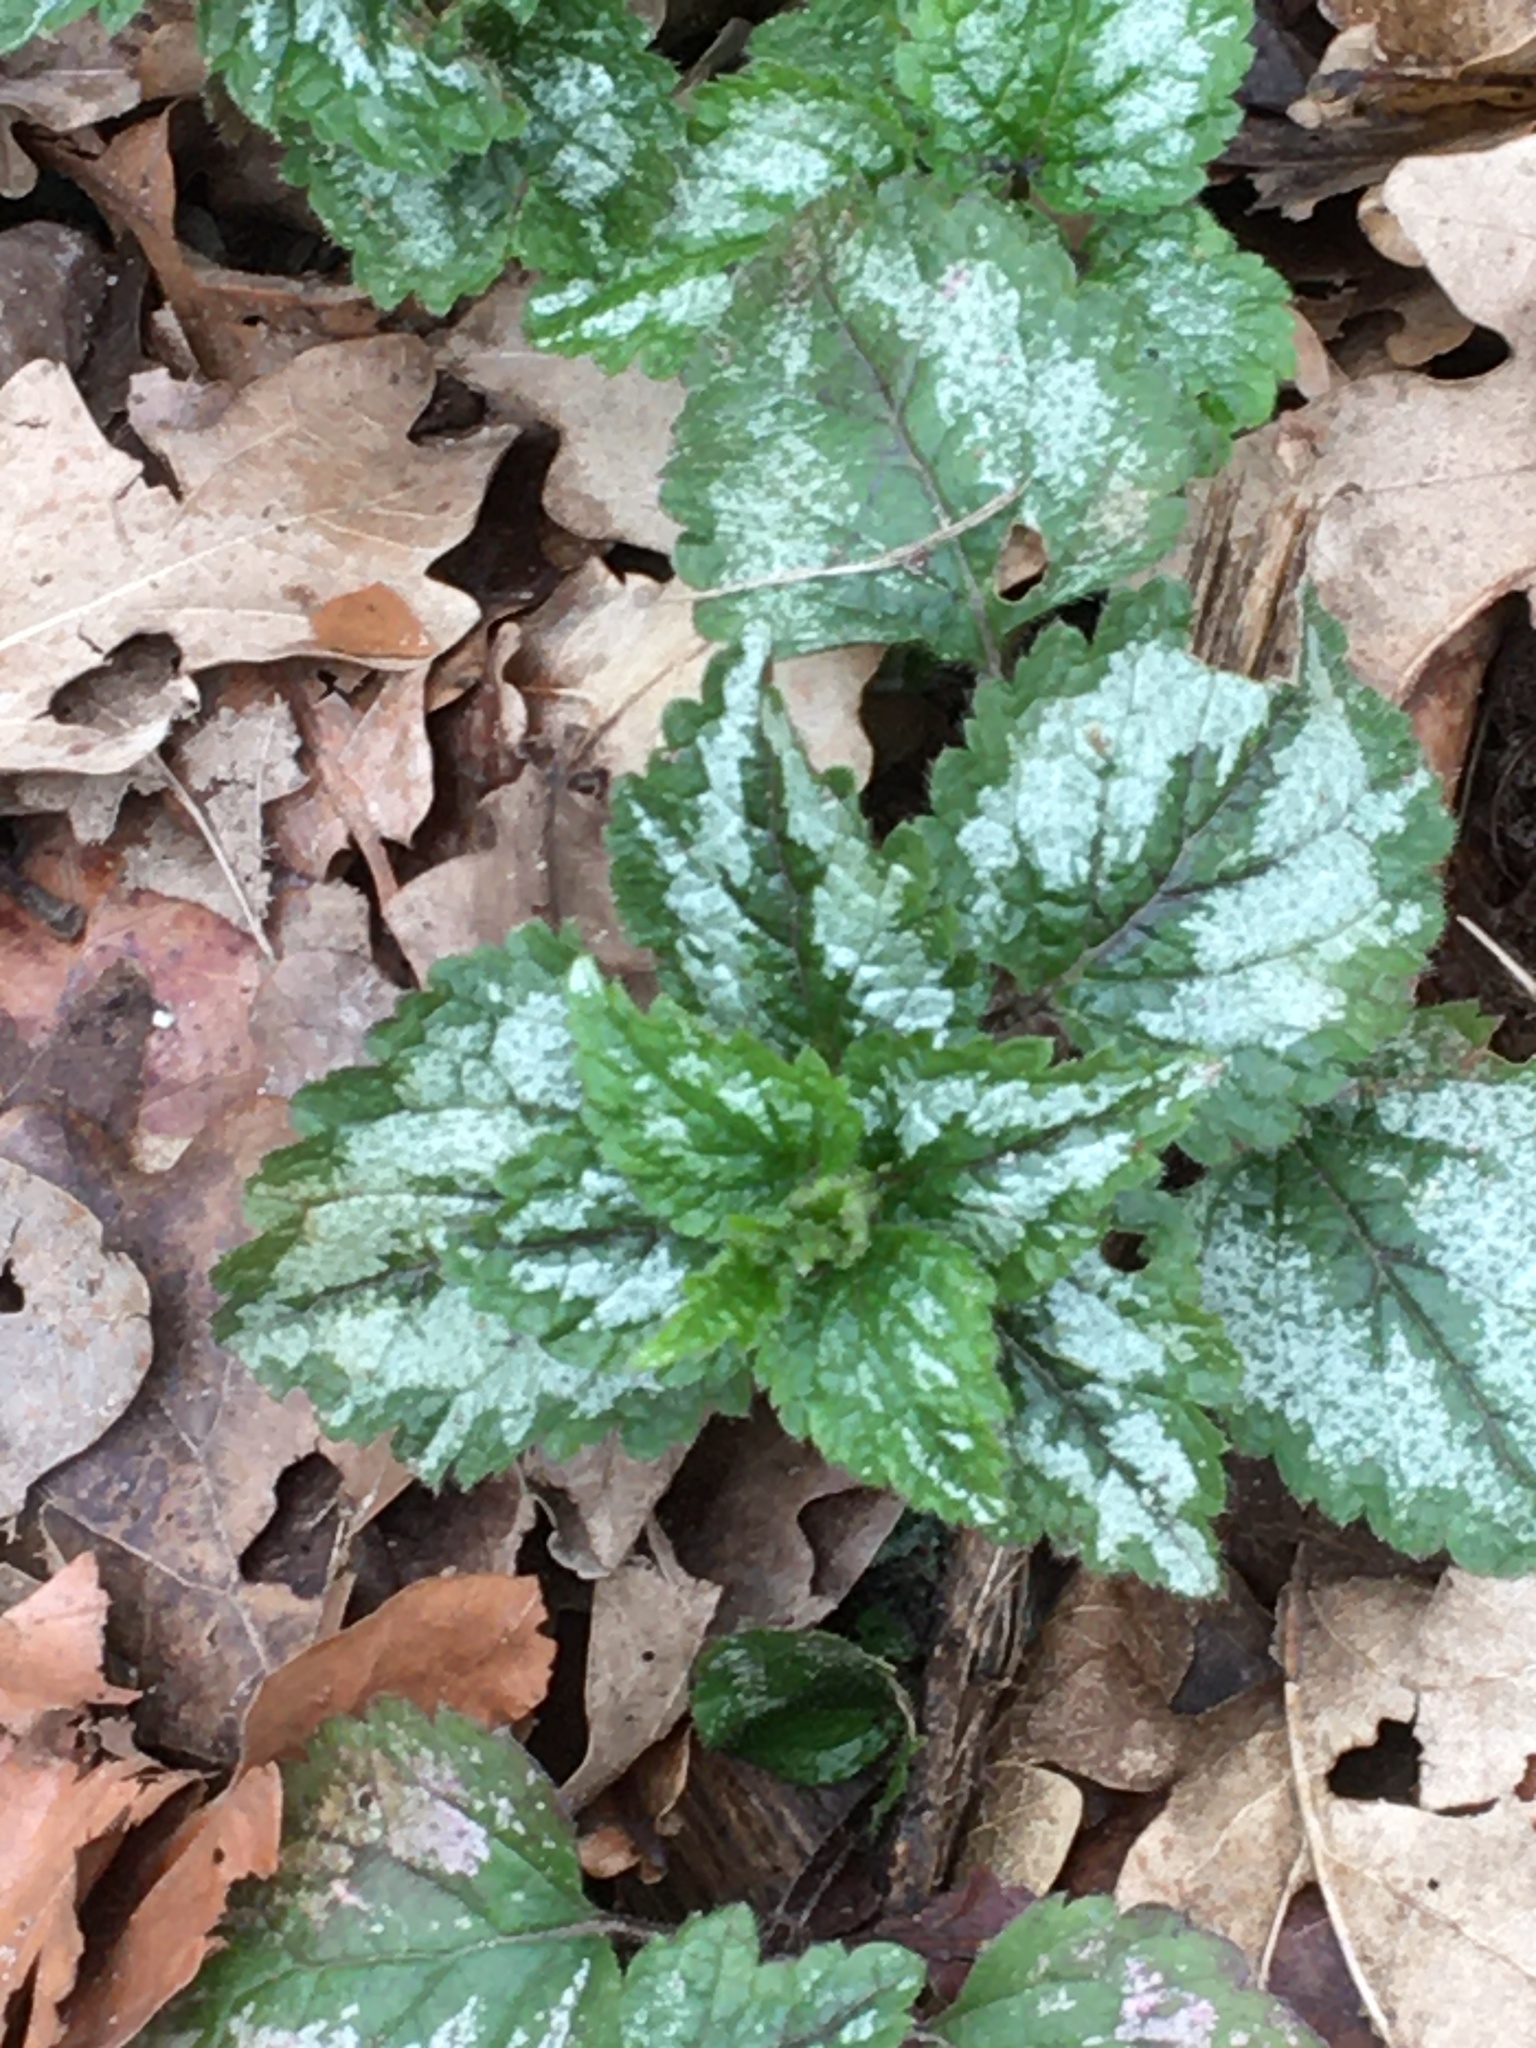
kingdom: Plantae
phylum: Tracheophyta
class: Magnoliopsida
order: Lamiales
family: Lamiaceae
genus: Lamium
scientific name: Lamium galeobdolon
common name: Yellow archangel
